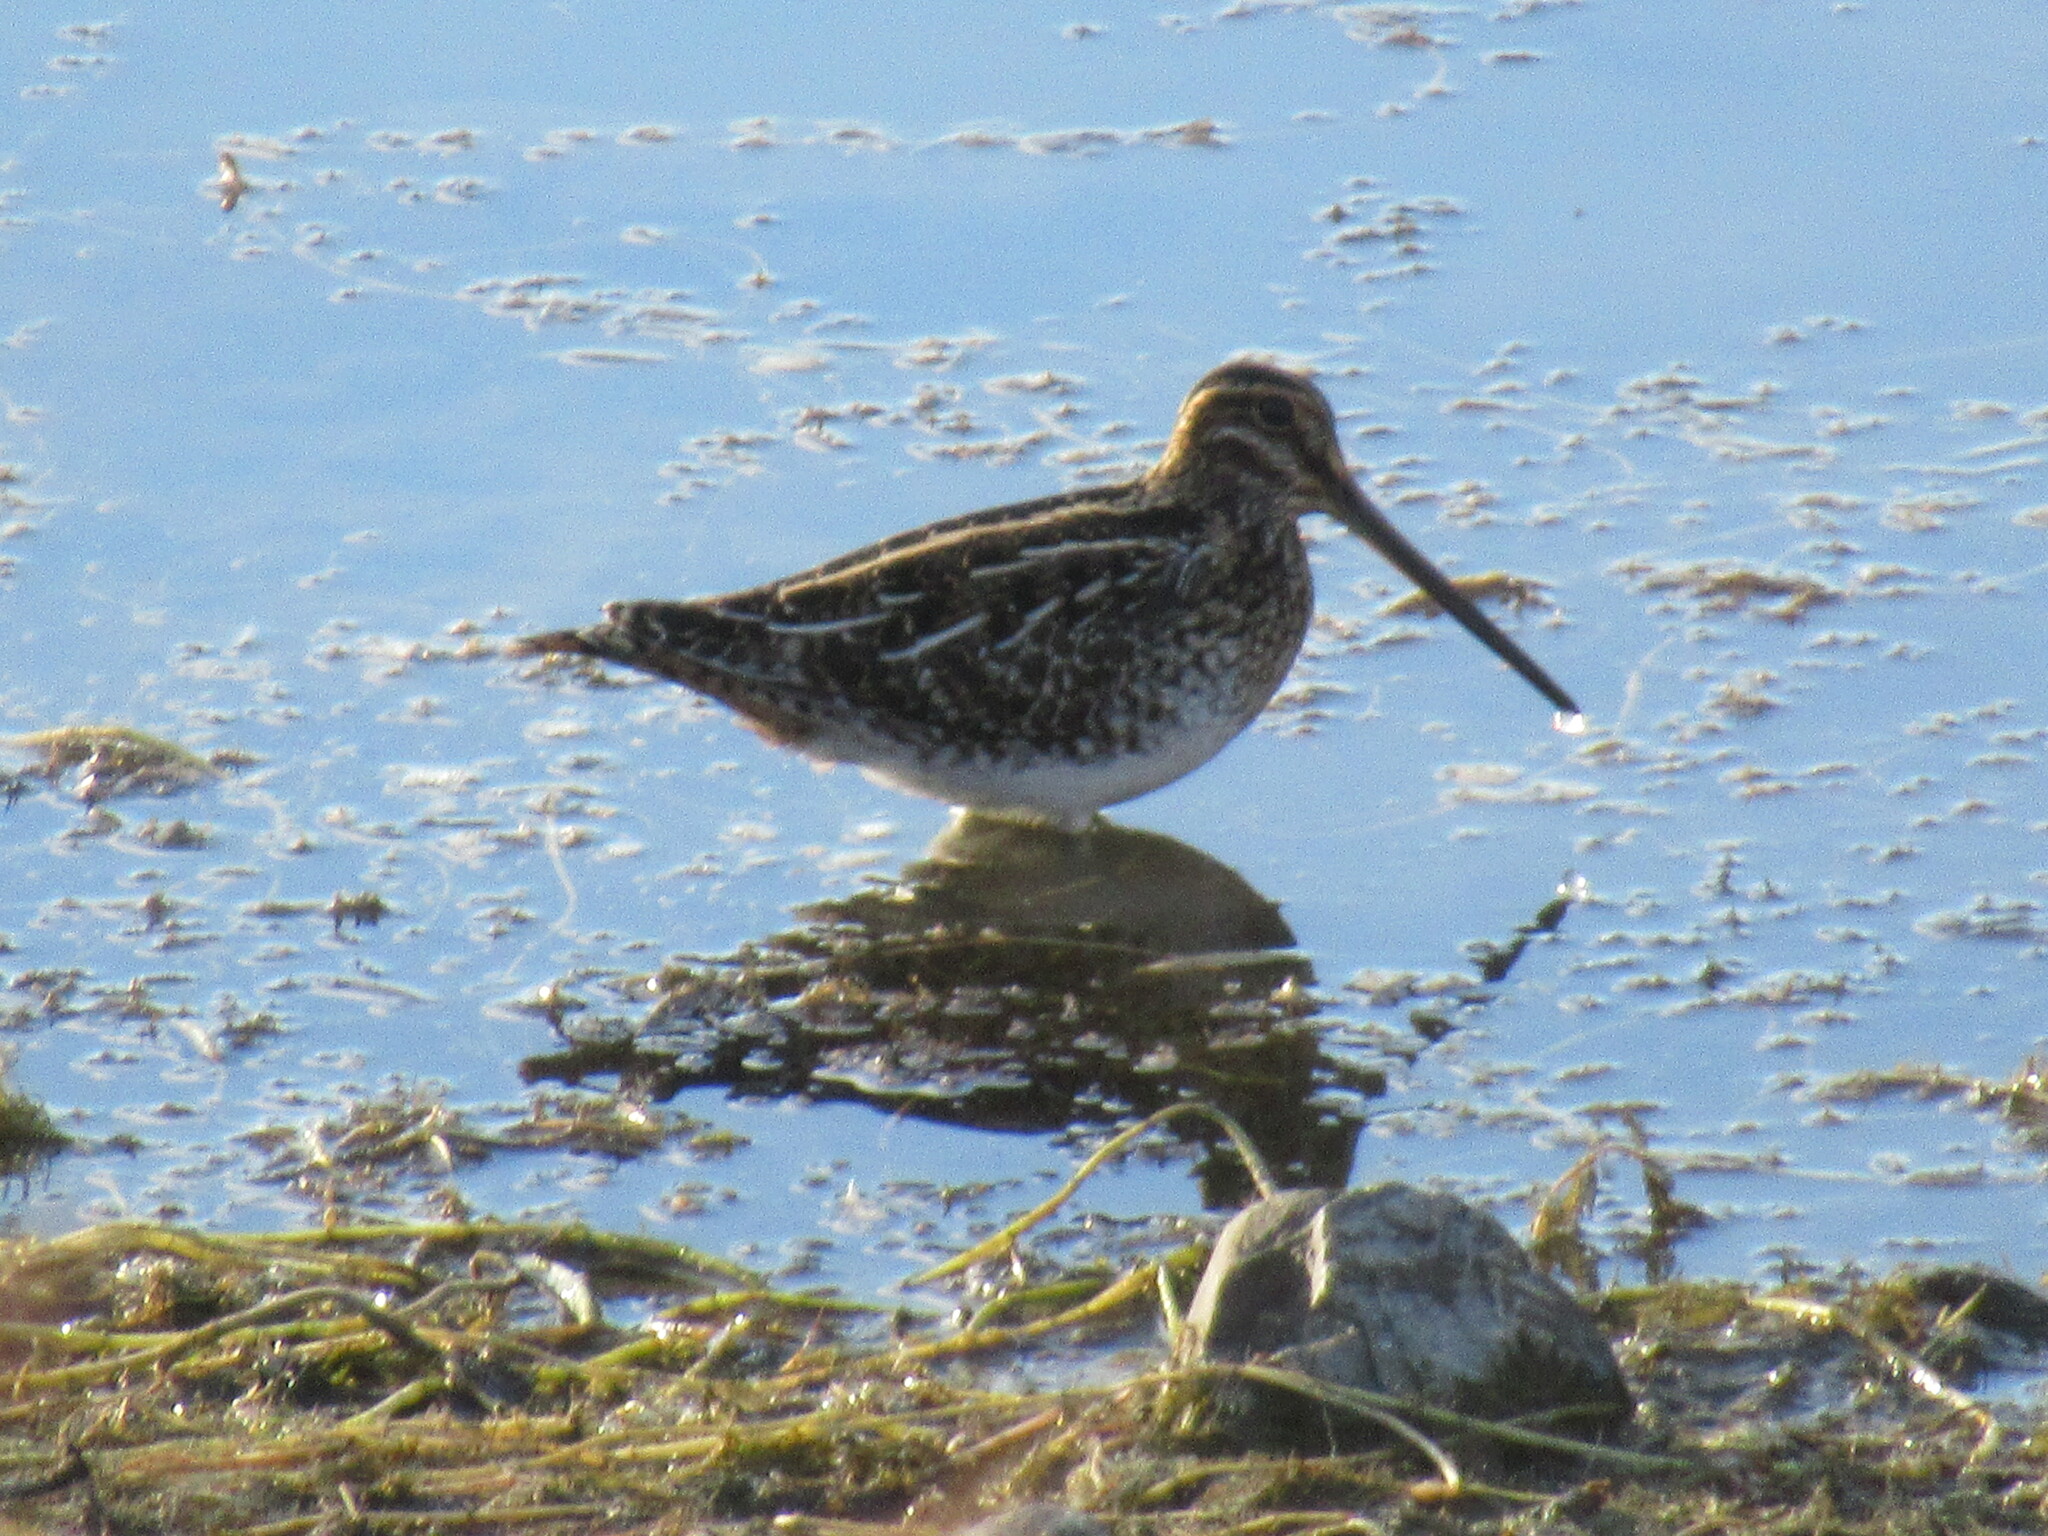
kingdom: Animalia
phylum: Chordata
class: Aves
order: Charadriiformes
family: Scolopacidae
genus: Gallinago
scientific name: Gallinago delicata
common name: Wilson's snipe
